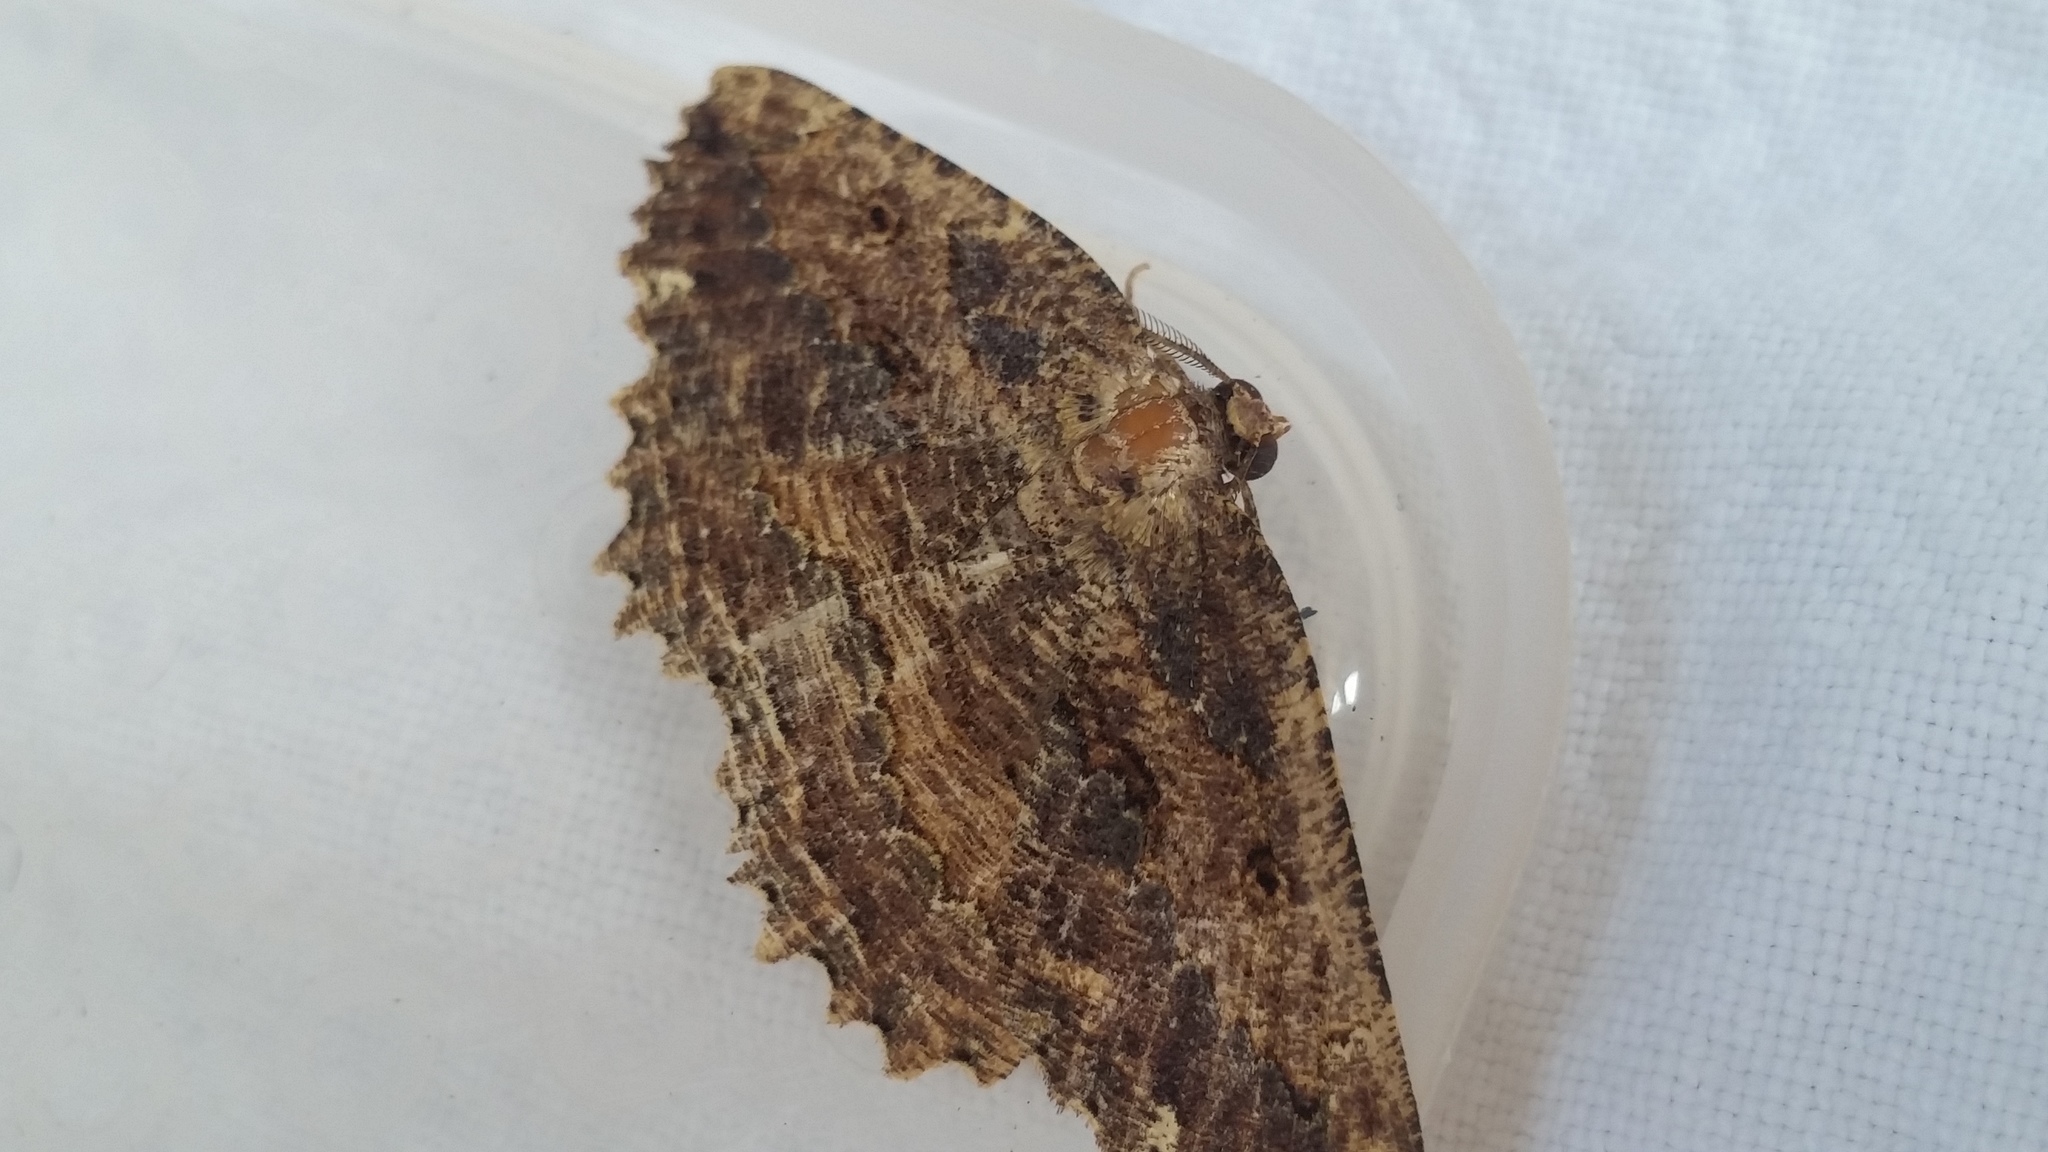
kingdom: Animalia
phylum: Arthropoda
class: Insecta
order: Lepidoptera
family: Geometridae
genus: Gellonia
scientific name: Gellonia dejectaria
